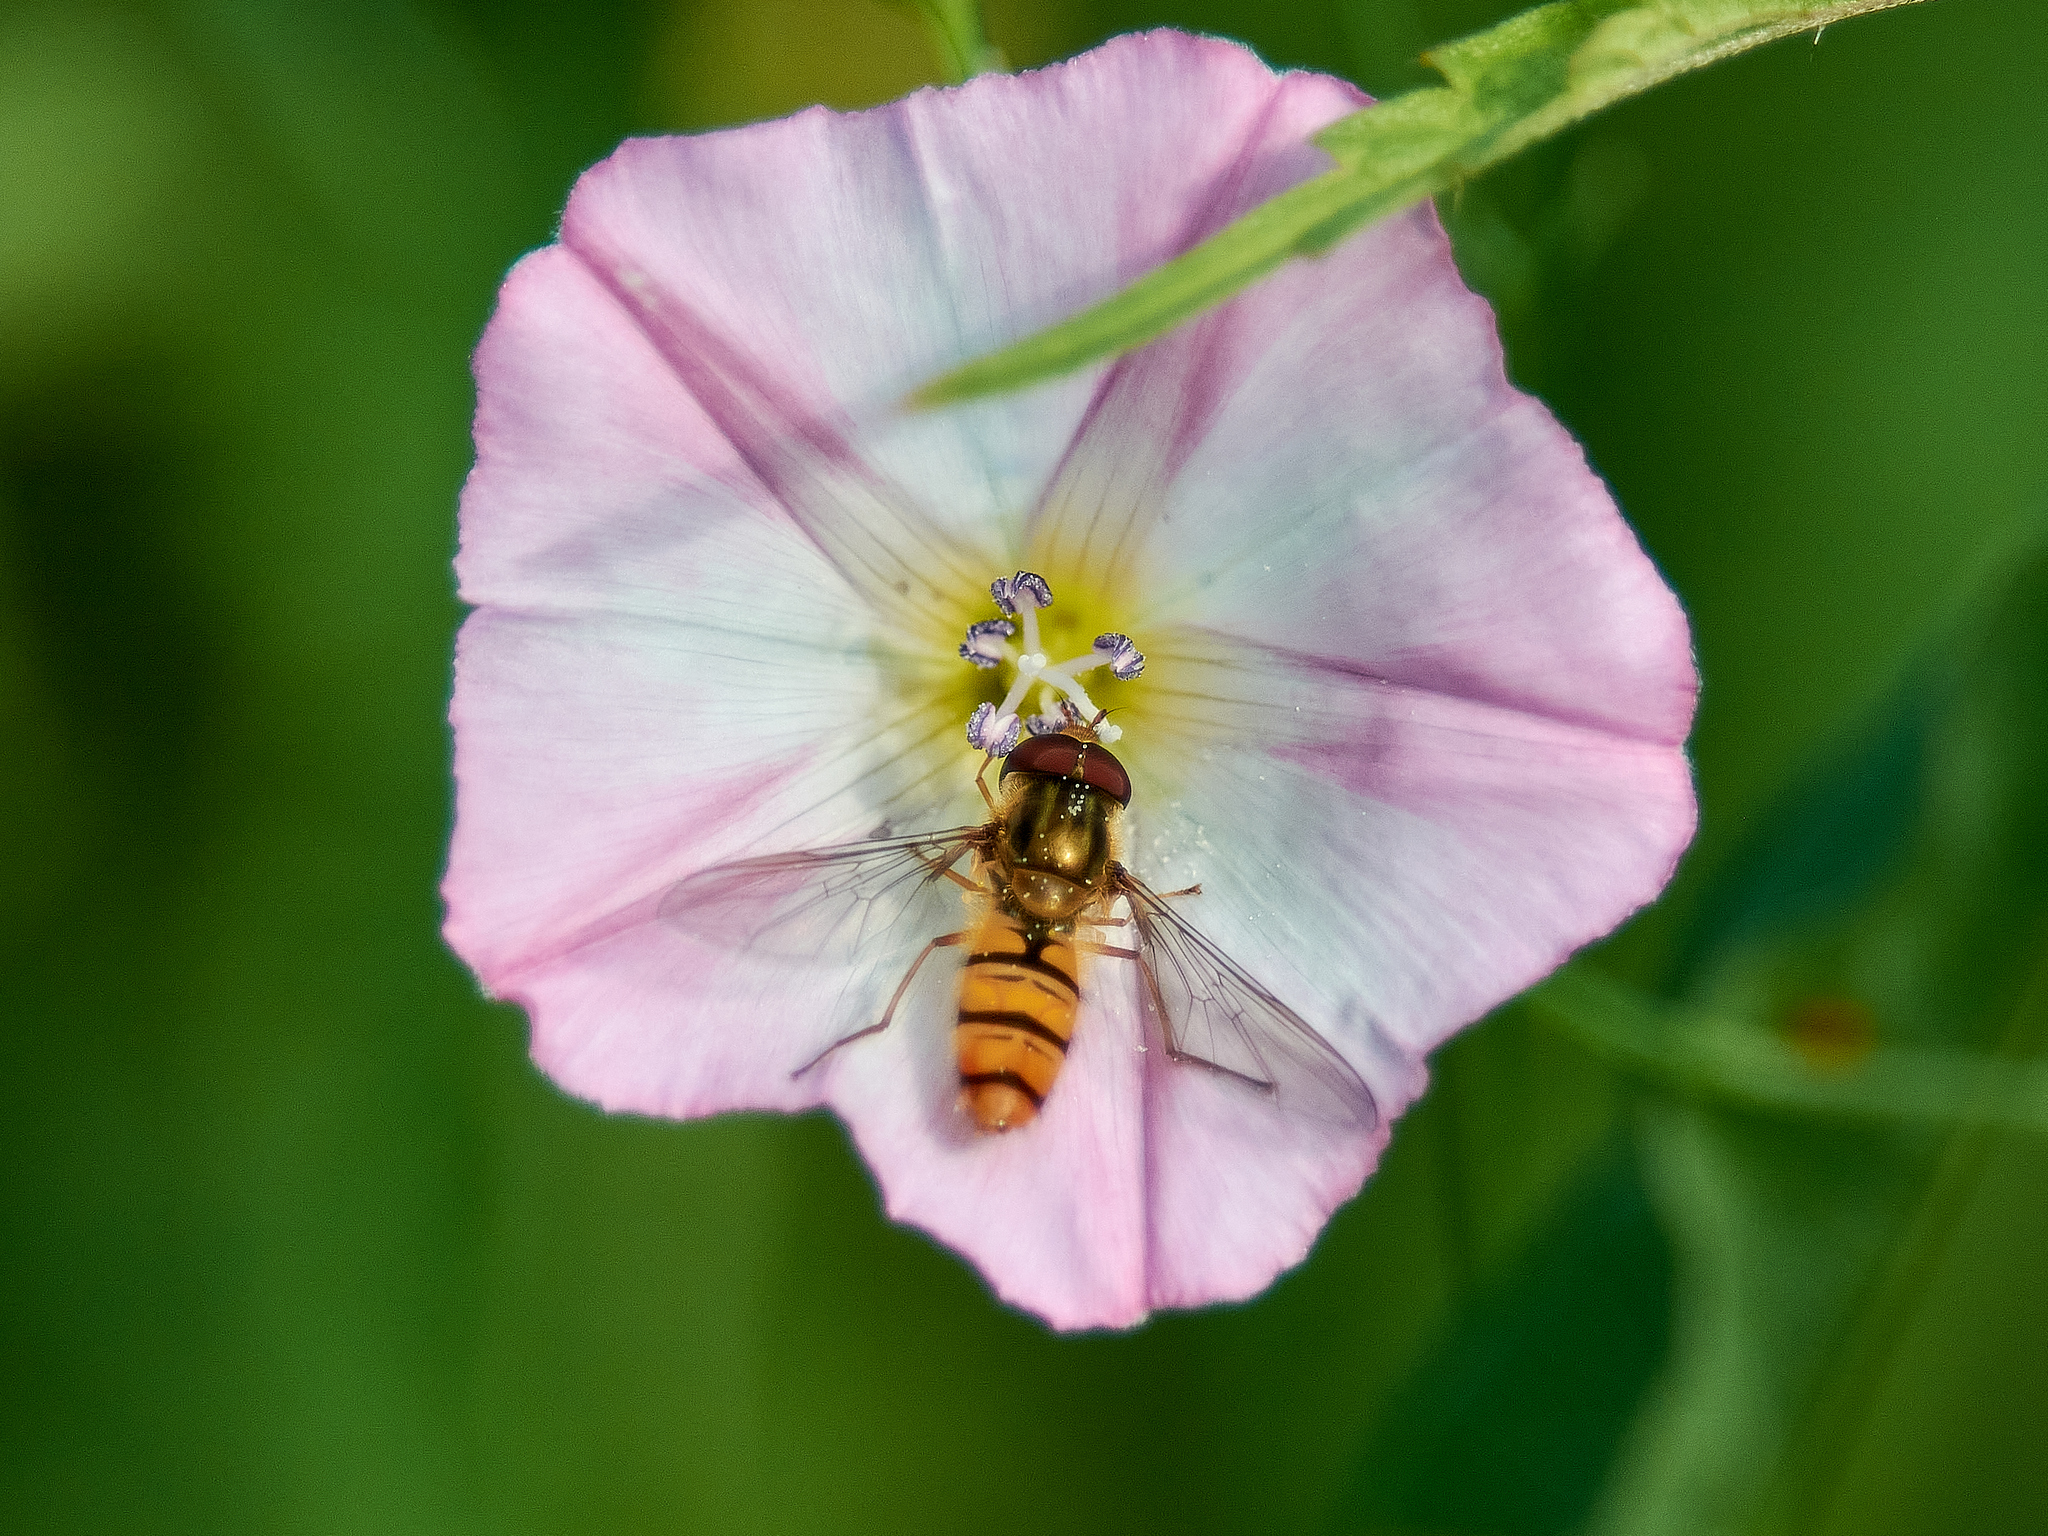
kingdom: Animalia
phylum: Arthropoda
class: Insecta
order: Diptera
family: Syrphidae
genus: Episyrphus
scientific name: Episyrphus balteatus
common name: Marmalade hoverfly
